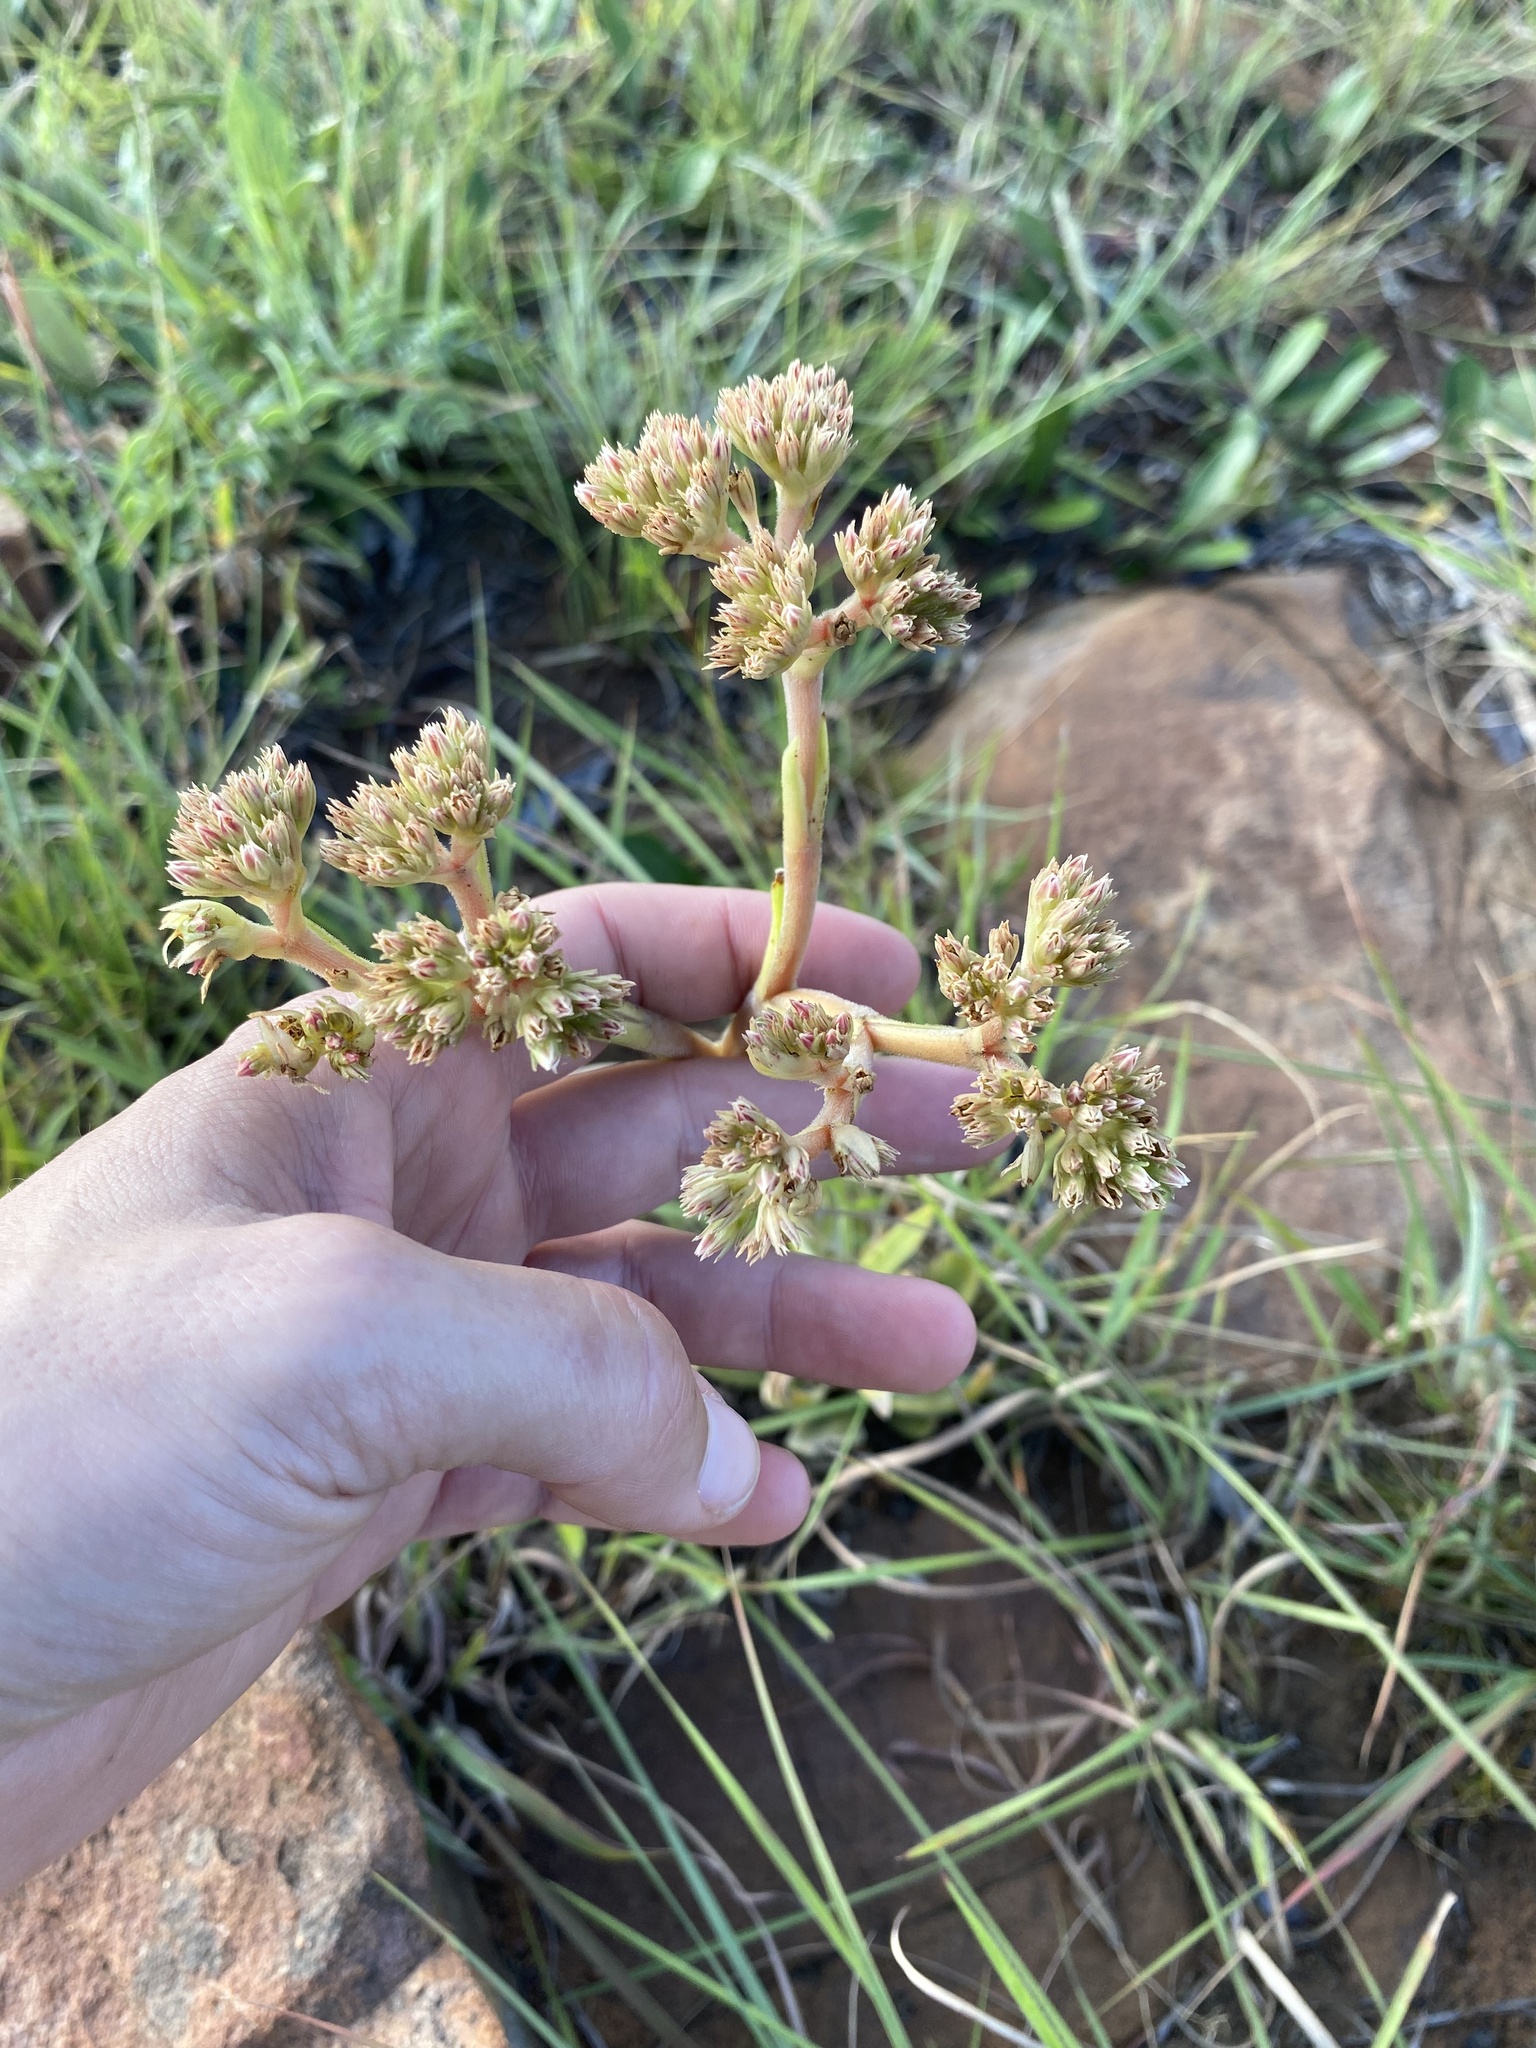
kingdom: Plantae
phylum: Tracheophyta
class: Magnoliopsida
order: Saxifragales
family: Crassulaceae
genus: Crassula
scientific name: Crassula alba
